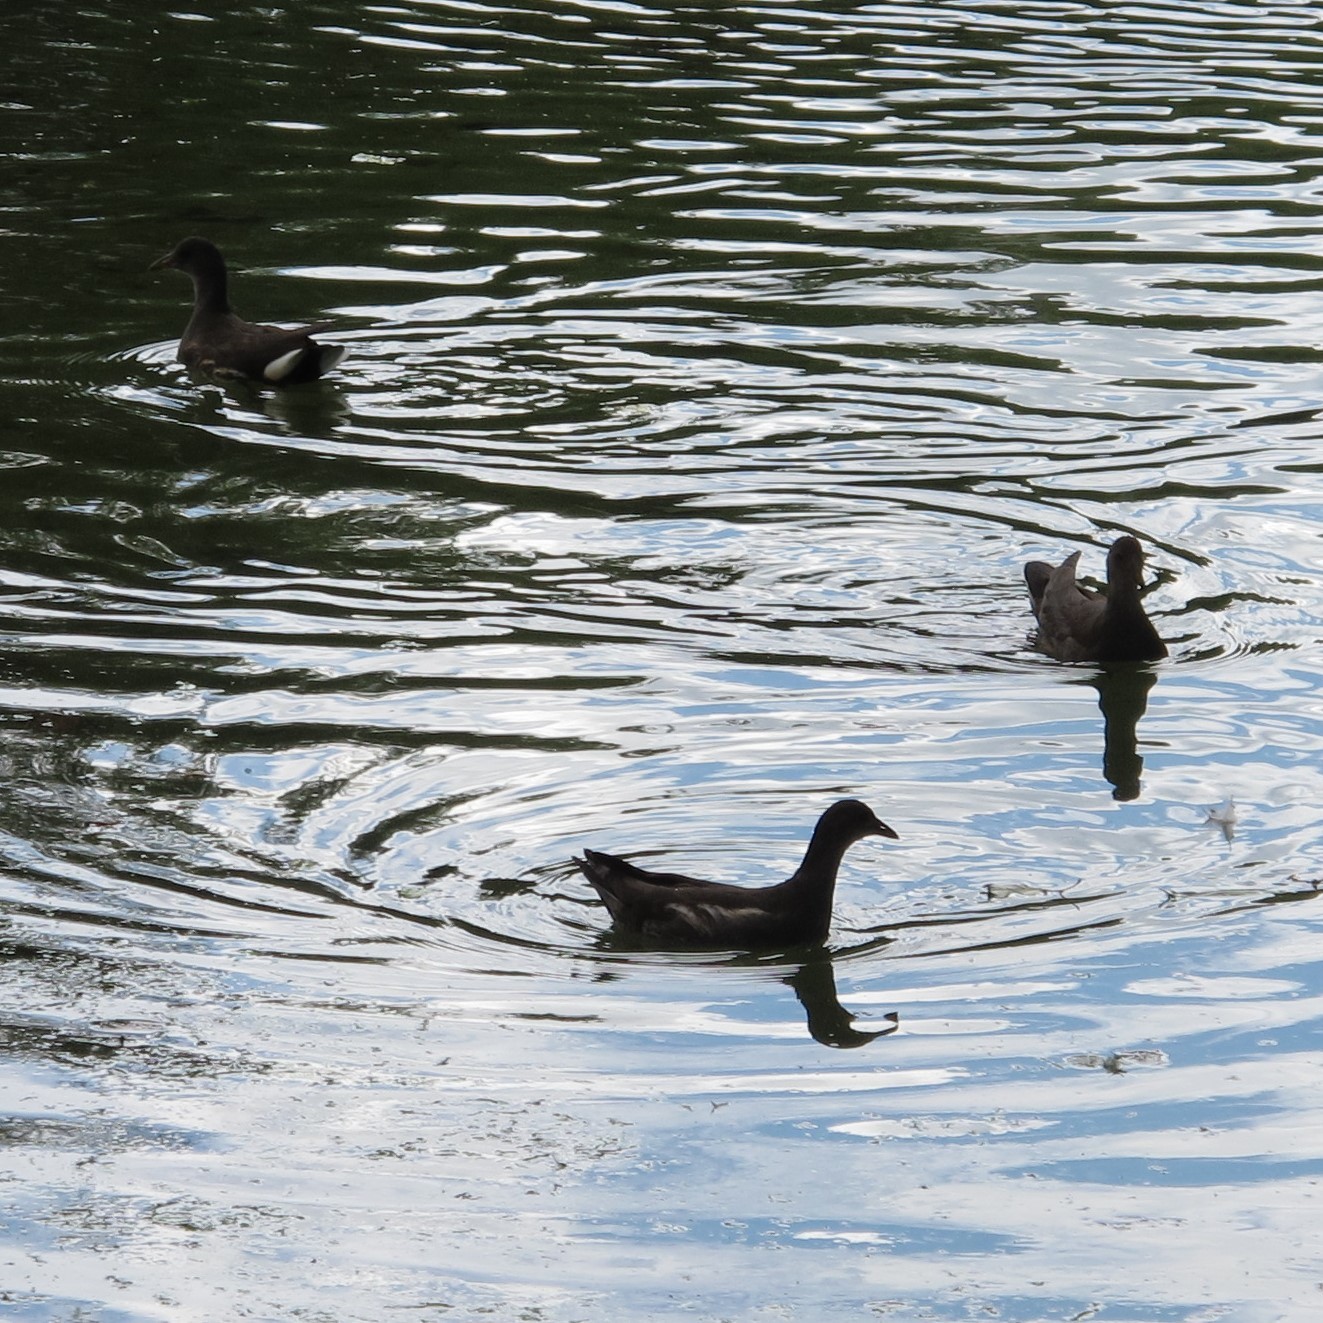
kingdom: Animalia
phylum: Chordata
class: Aves
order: Gruiformes
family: Rallidae
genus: Gallinula
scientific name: Gallinula chloropus
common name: Common moorhen
